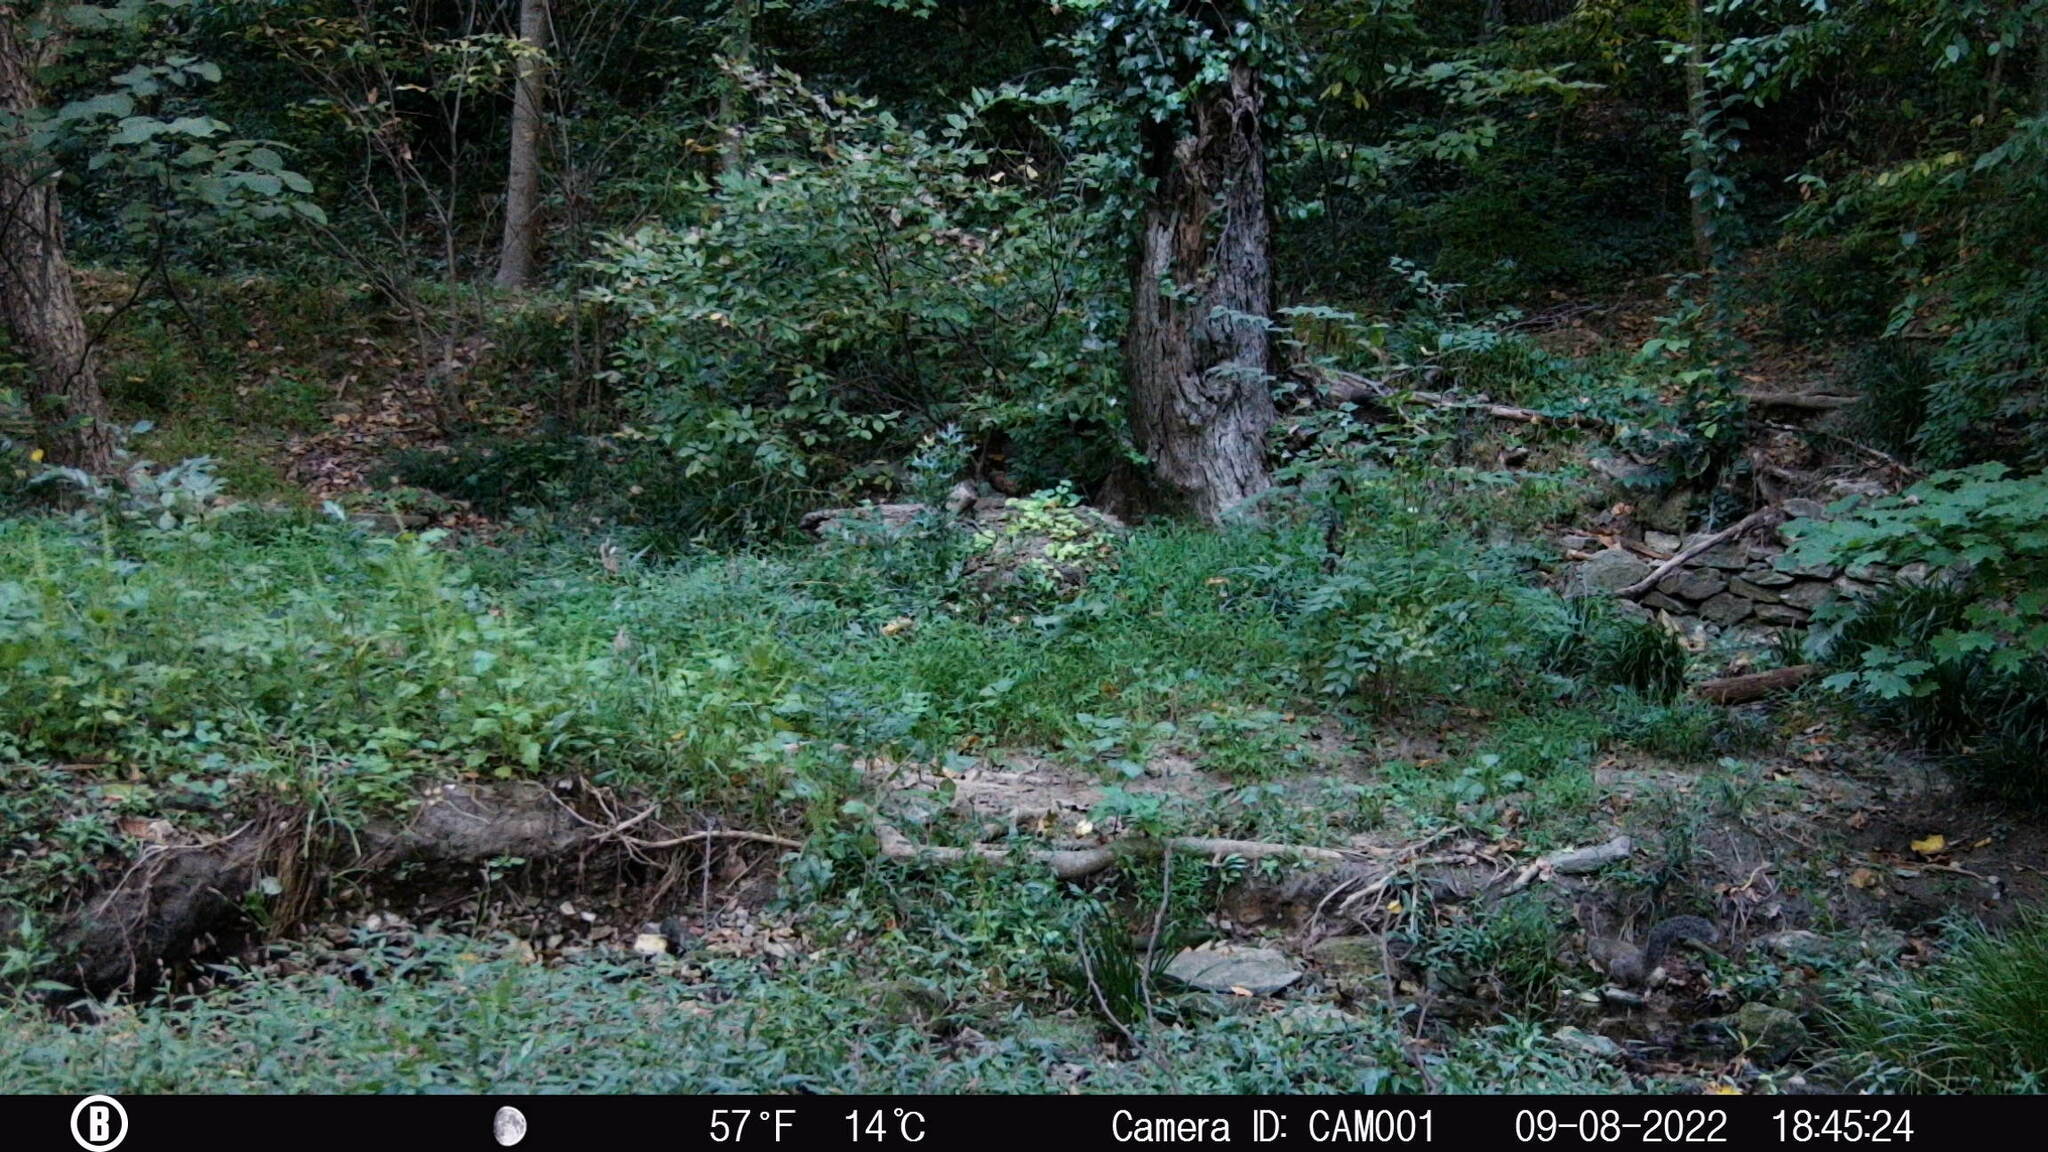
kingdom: Animalia
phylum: Chordata
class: Mammalia
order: Rodentia
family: Sciuridae
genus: Sciurus
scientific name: Sciurus carolinensis
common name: Eastern gray squirrel
